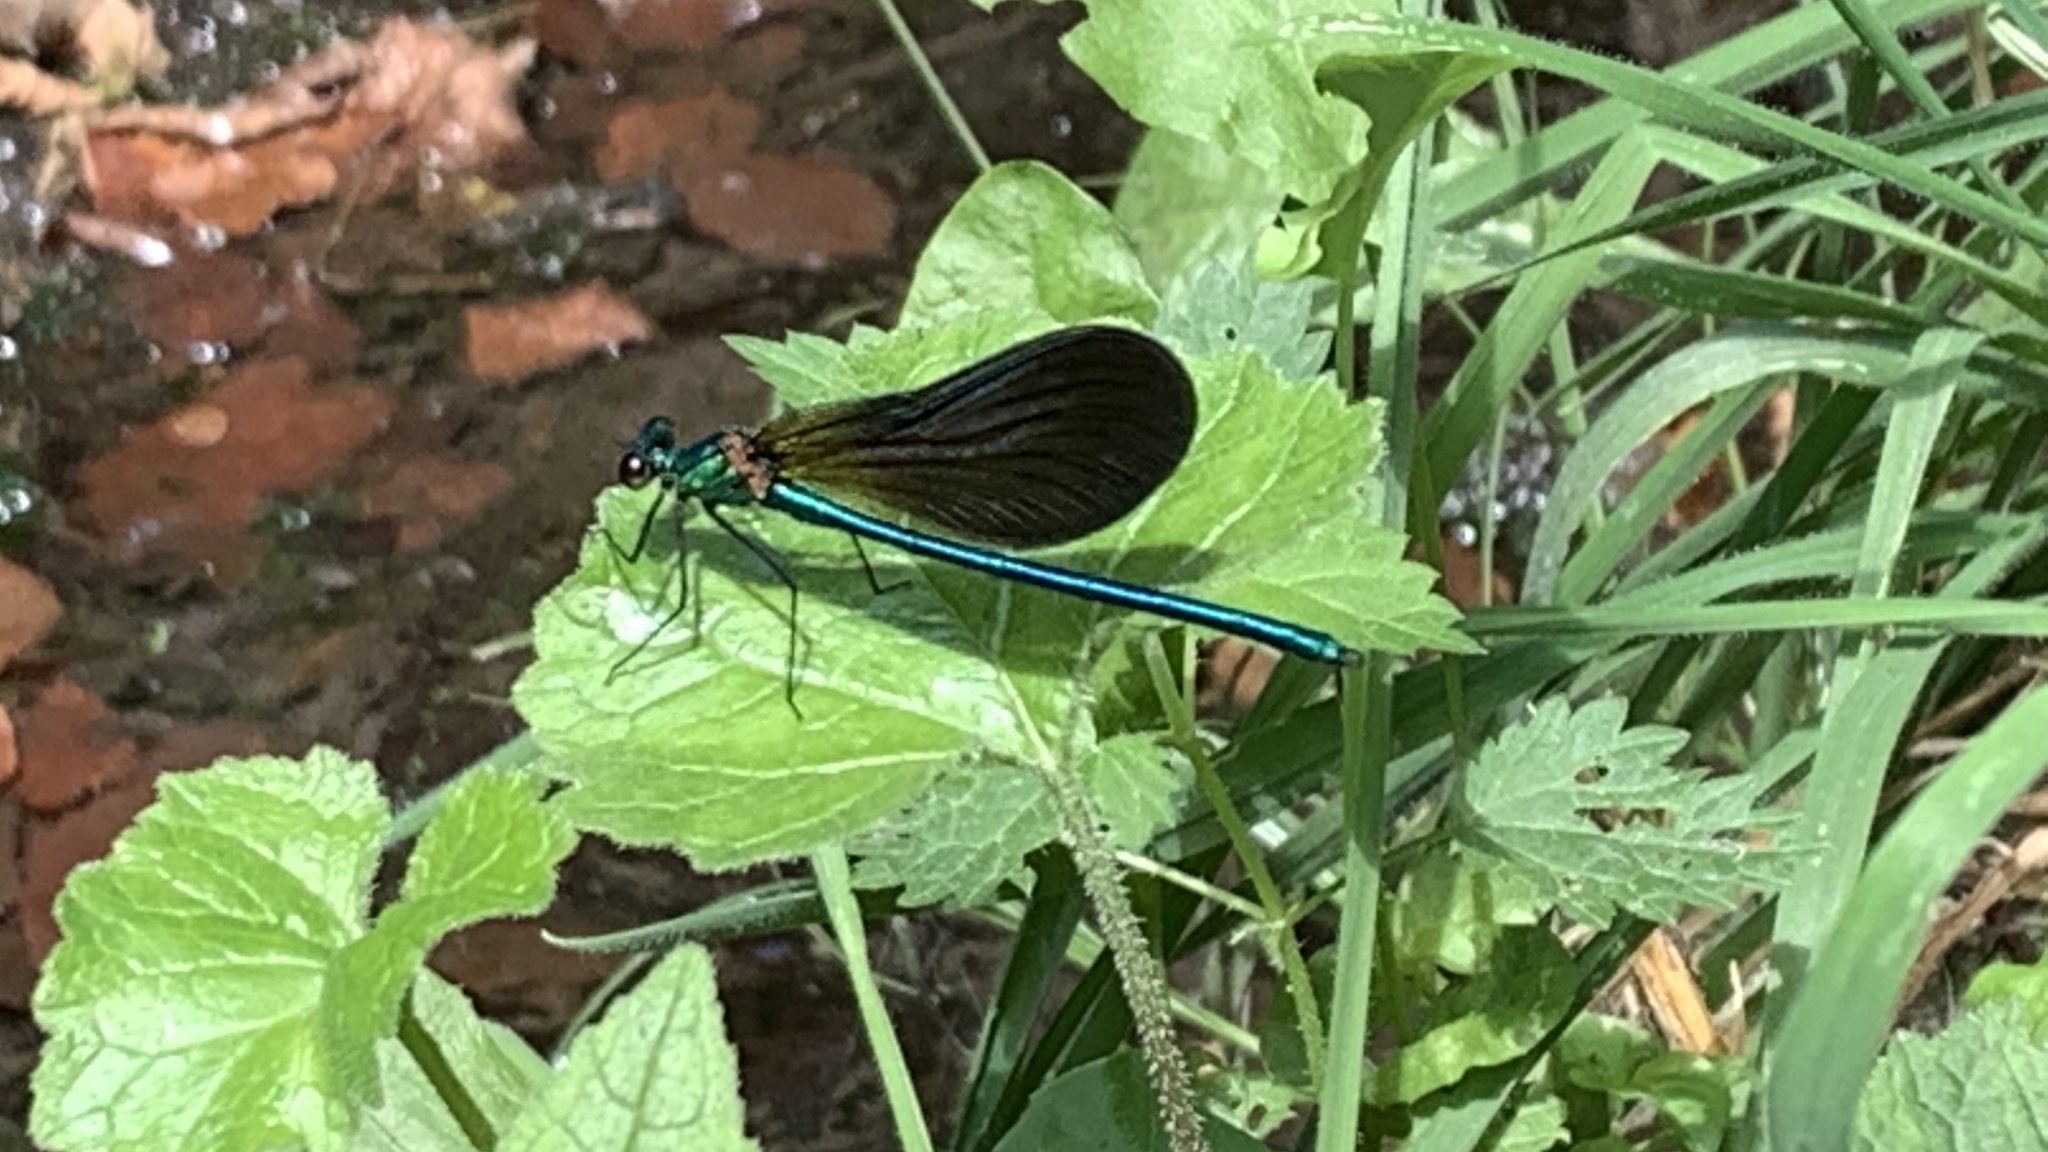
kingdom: Animalia
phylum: Arthropoda
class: Insecta
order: Odonata
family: Calopterygidae
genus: Calopteryx
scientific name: Calopteryx virgo
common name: Beautiful demoiselle
